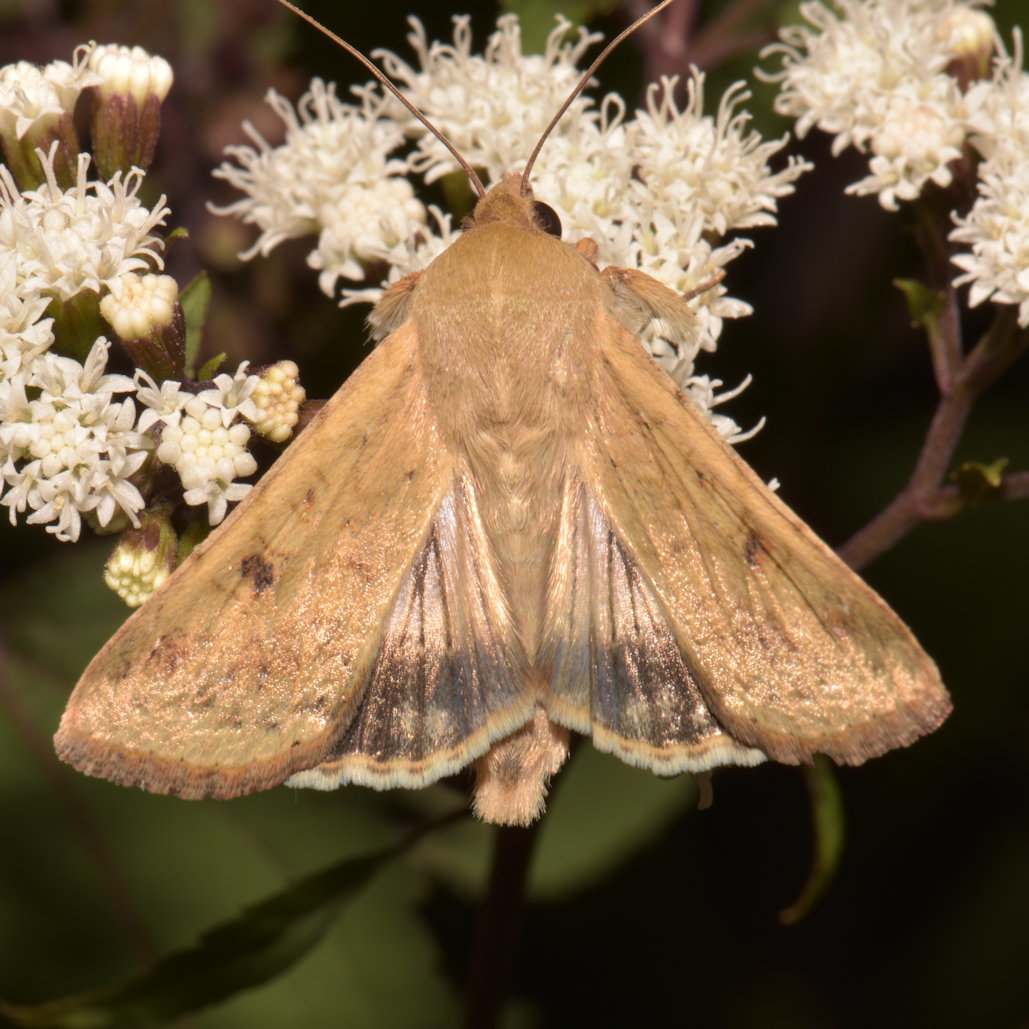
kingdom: Animalia
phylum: Arthropoda
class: Insecta
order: Lepidoptera
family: Noctuidae
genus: Helicoverpa
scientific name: Helicoverpa zea
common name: Bollworm
